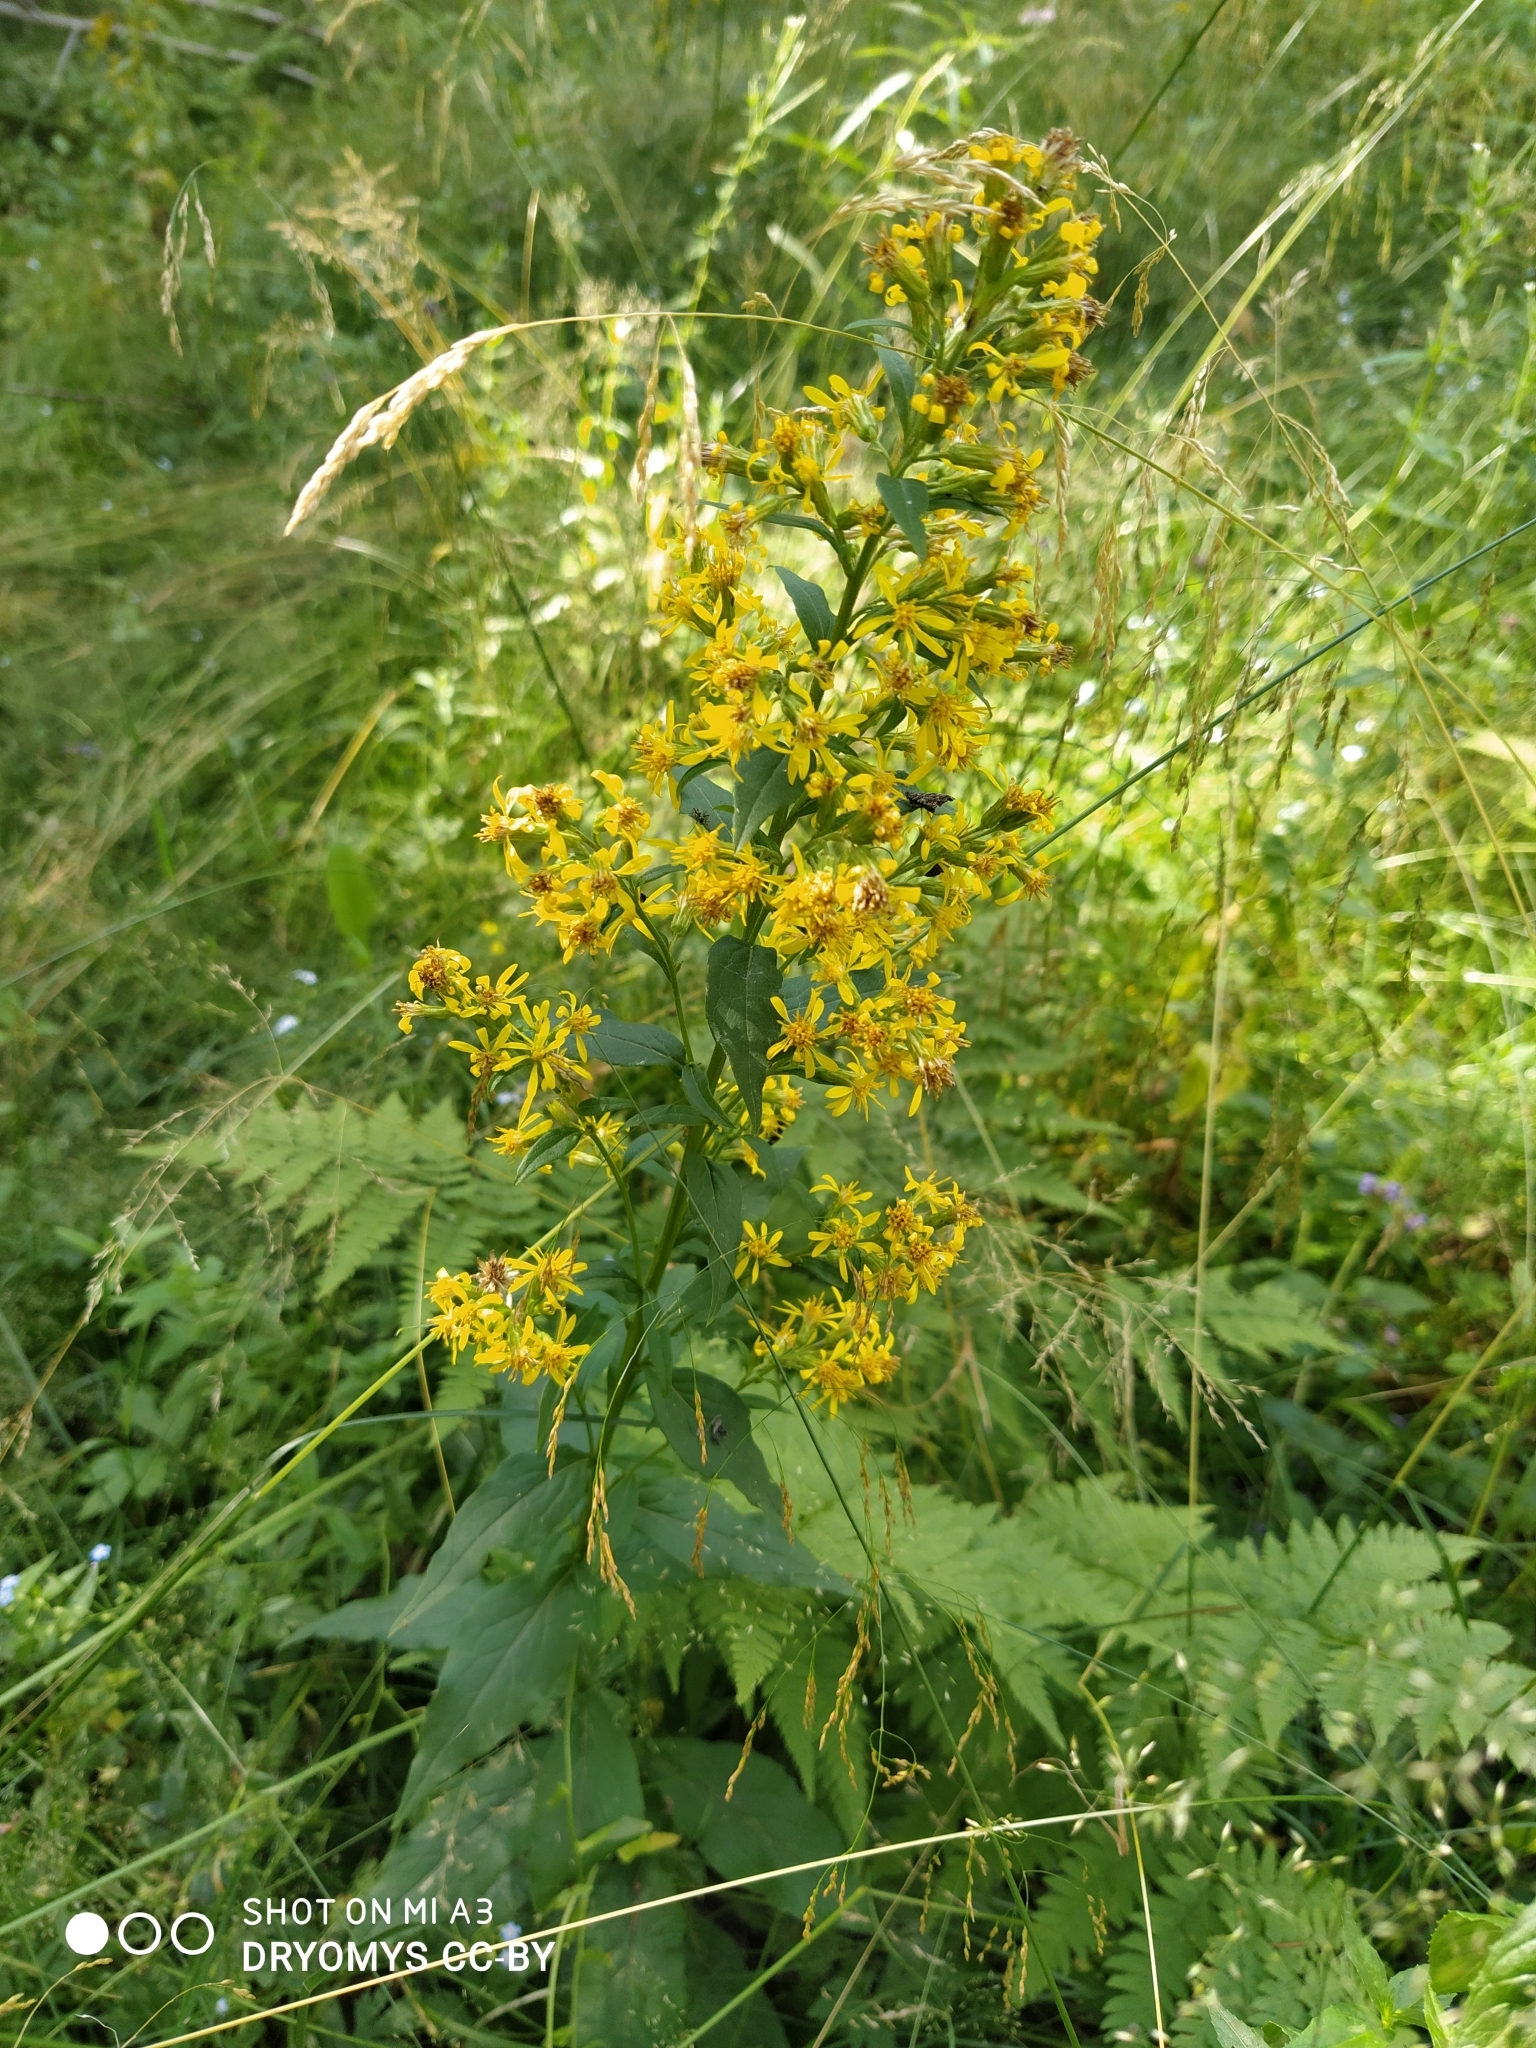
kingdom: Plantae
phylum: Tracheophyta
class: Magnoliopsida
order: Asterales
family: Asteraceae
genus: Solidago
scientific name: Solidago virgaurea
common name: Goldenrod
